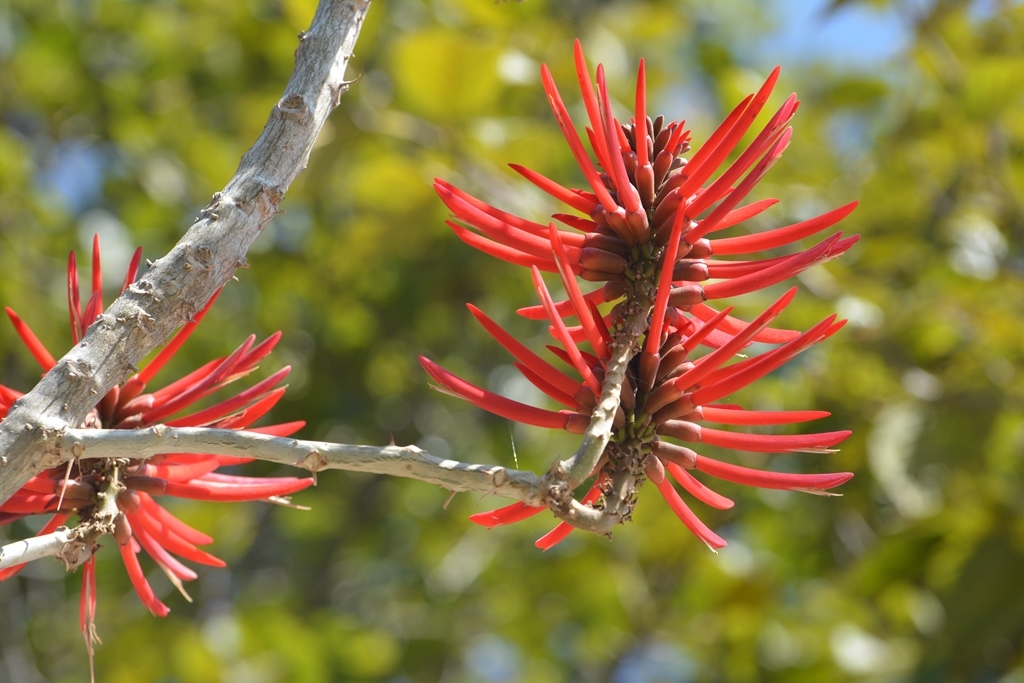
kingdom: Plantae
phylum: Tracheophyta
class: Magnoliopsida
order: Fabales
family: Fabaceae
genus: Erythrina
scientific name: Erythrina berteroana
